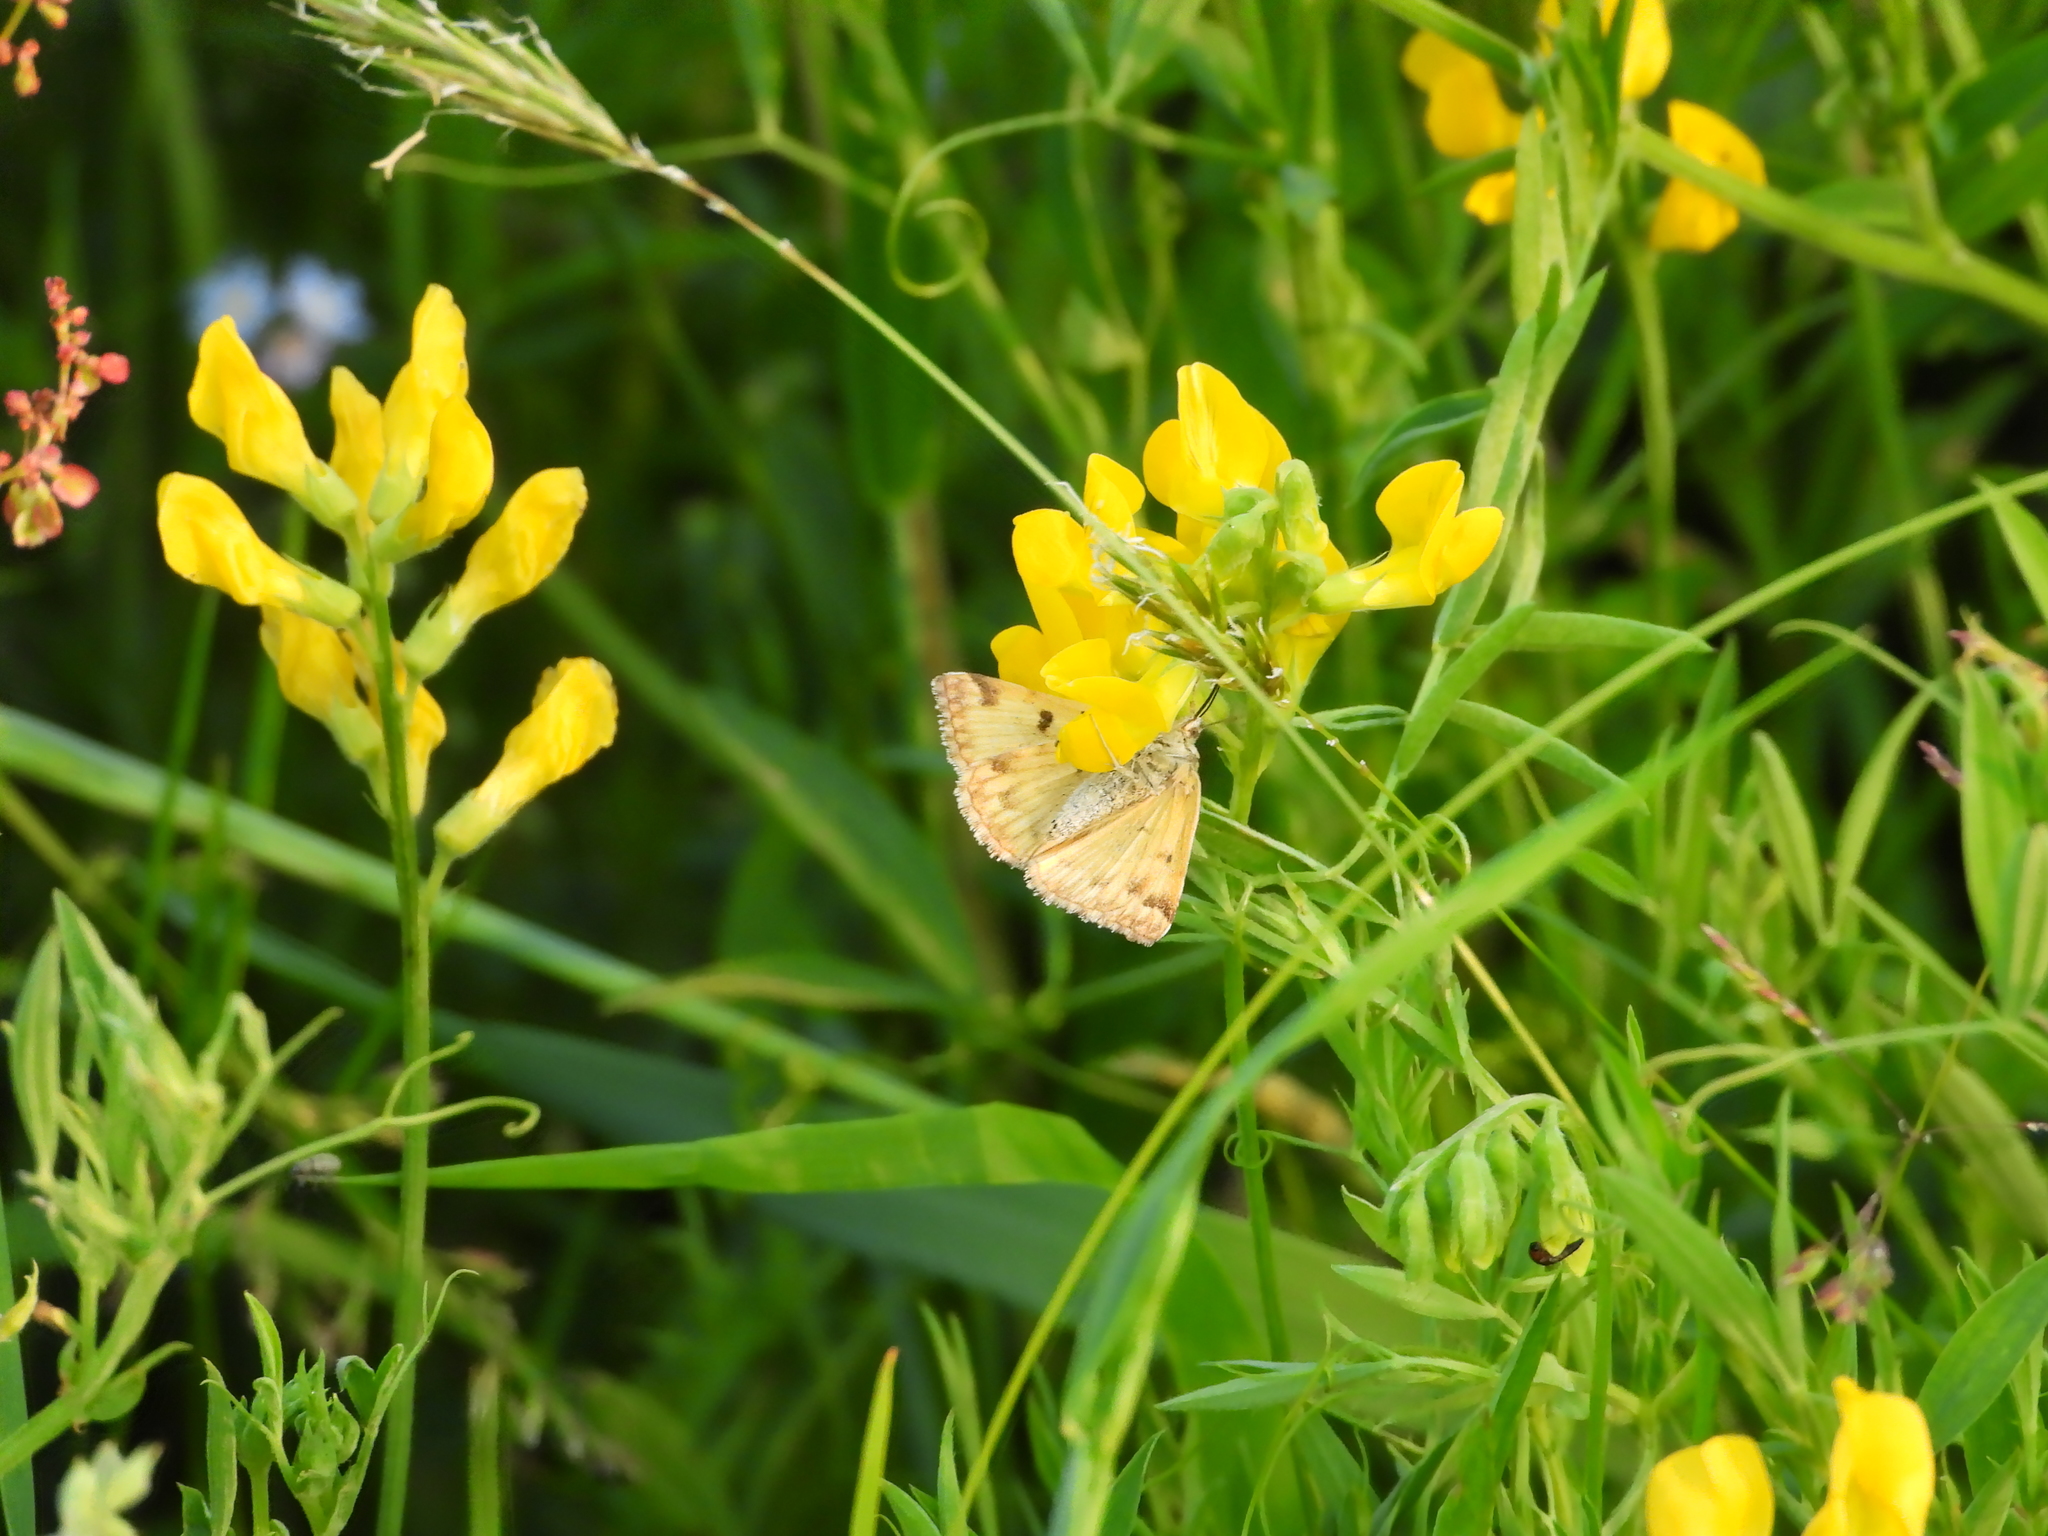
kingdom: Animalia
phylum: Arthropoda
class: Insecta
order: Lepidoptera
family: Erebidae
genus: Euclidia
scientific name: Euclidia glyphica
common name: Burnet companion
